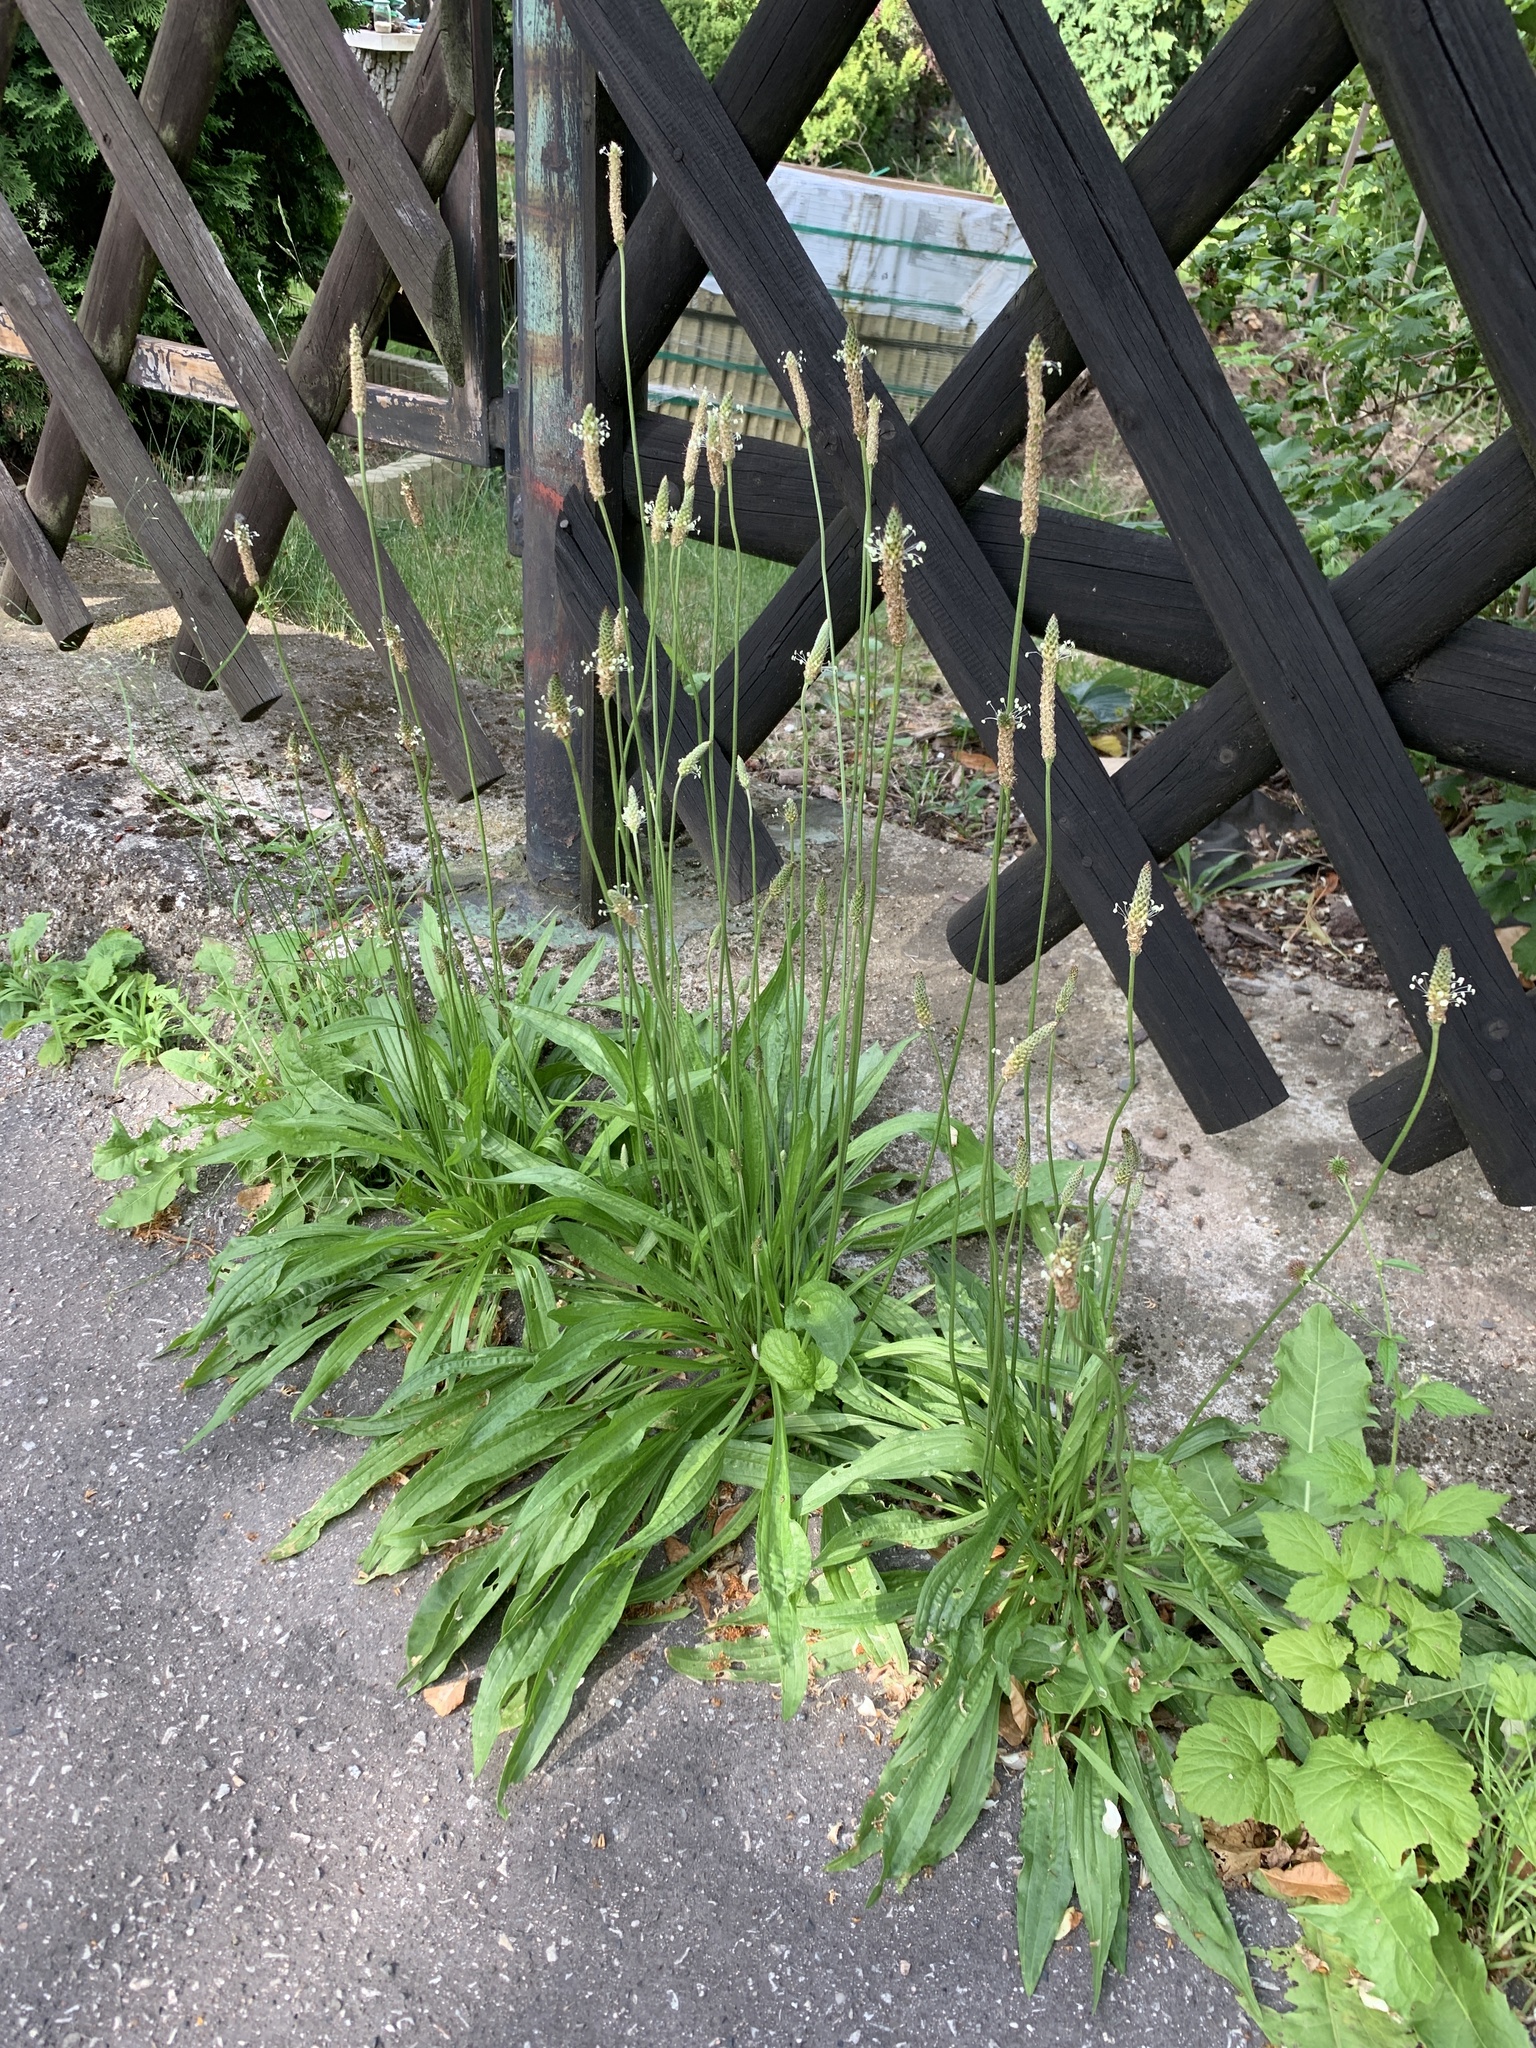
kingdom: Plantae
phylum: Tracheophyta
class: Magnoliopsida
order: Lamiales
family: Plantaginaceae
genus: Plantago
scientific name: Plantago lanceolata
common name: Ribwort plantain
